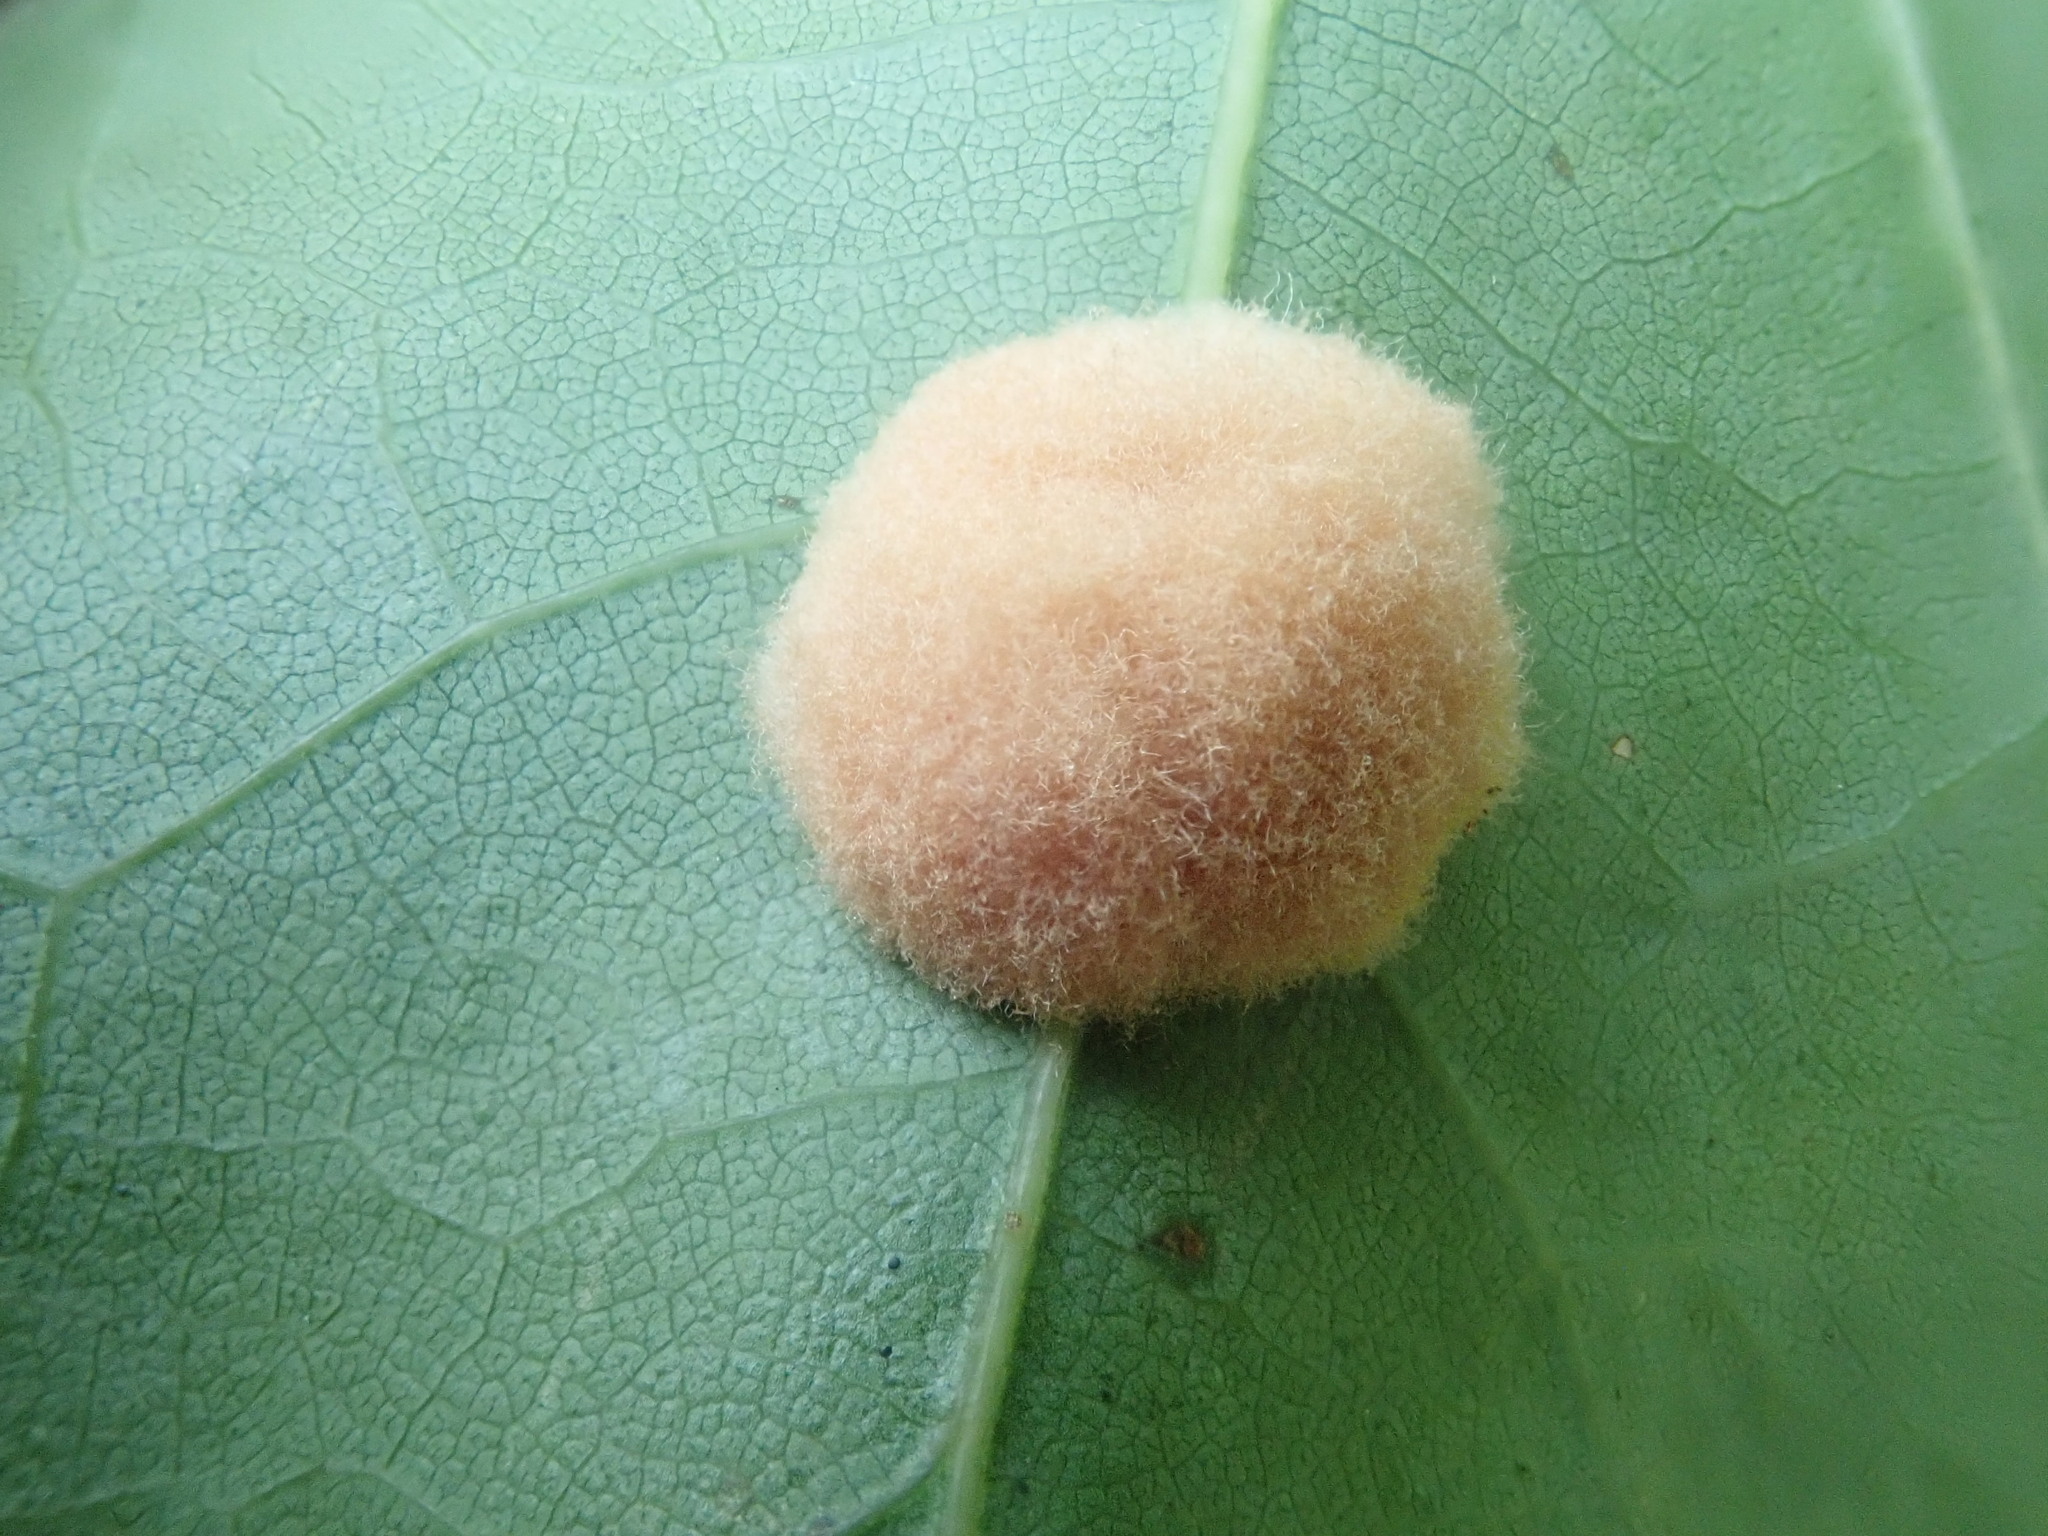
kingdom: Animalia
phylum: Arthropoda
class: Insecta
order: Hymenoptera
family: Cynipidae
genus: Callirhytis
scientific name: Callirhytis
